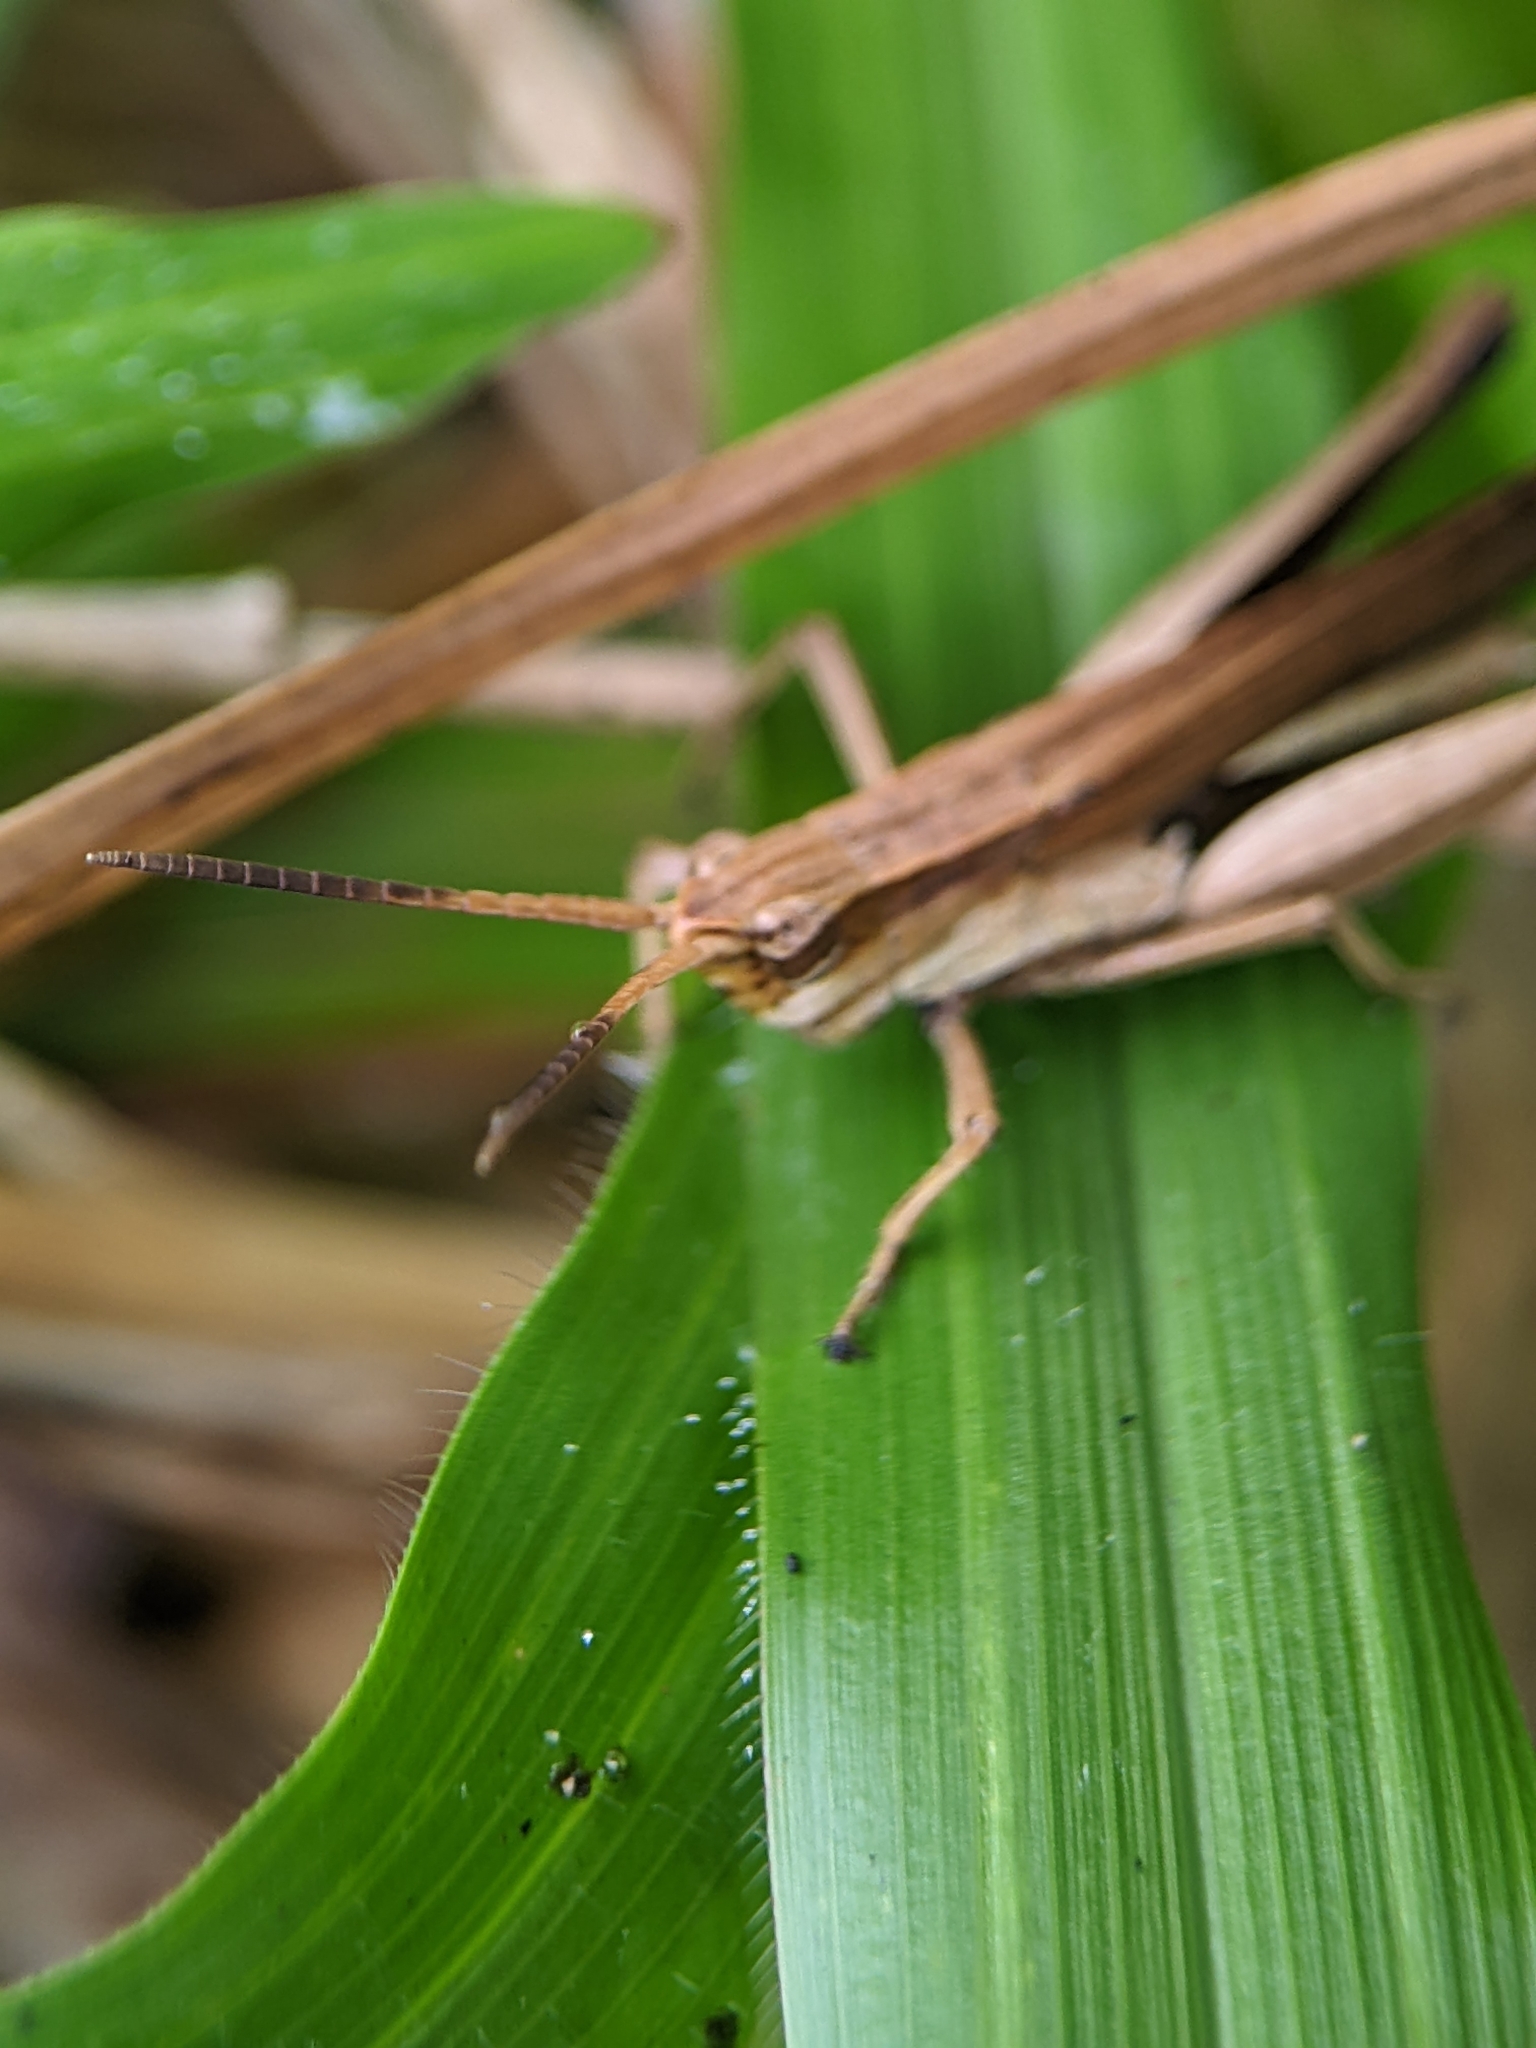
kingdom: Animalia
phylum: Arthropoda
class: Insecta
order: Orthoptera
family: Acrididae
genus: Phlaeoba
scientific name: Phlaeoba infumata
